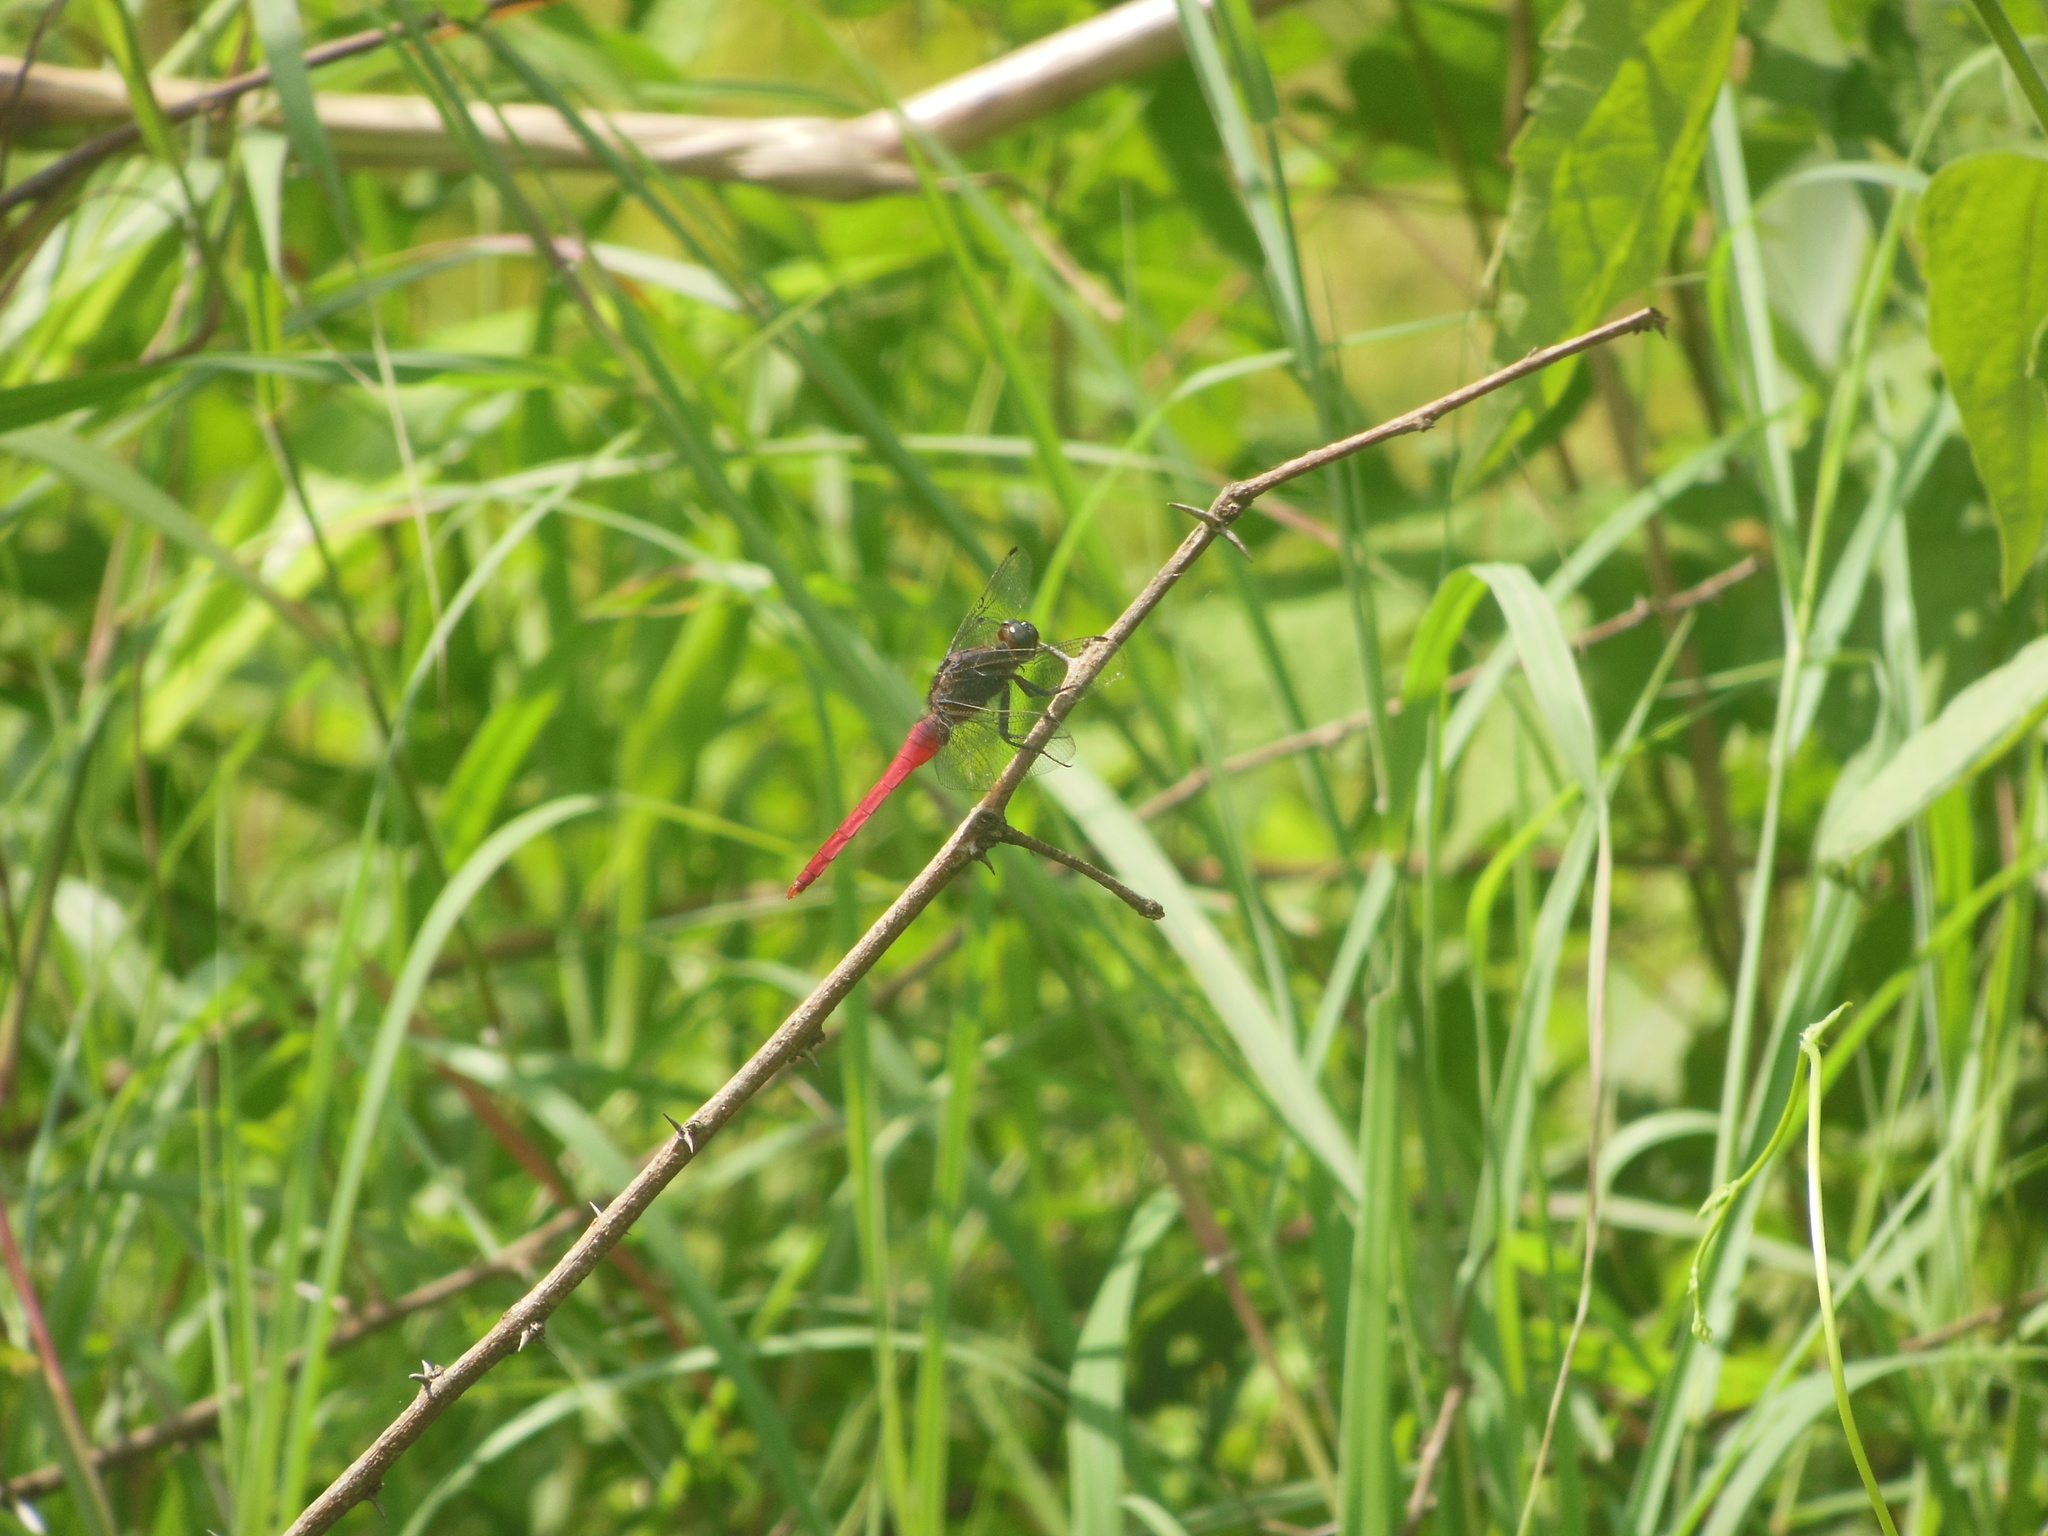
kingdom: Animalia
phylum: Arthropoda
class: Insecta
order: Odonata
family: Libellulidae
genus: Orthetrum
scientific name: Orthetrum pruinosum
